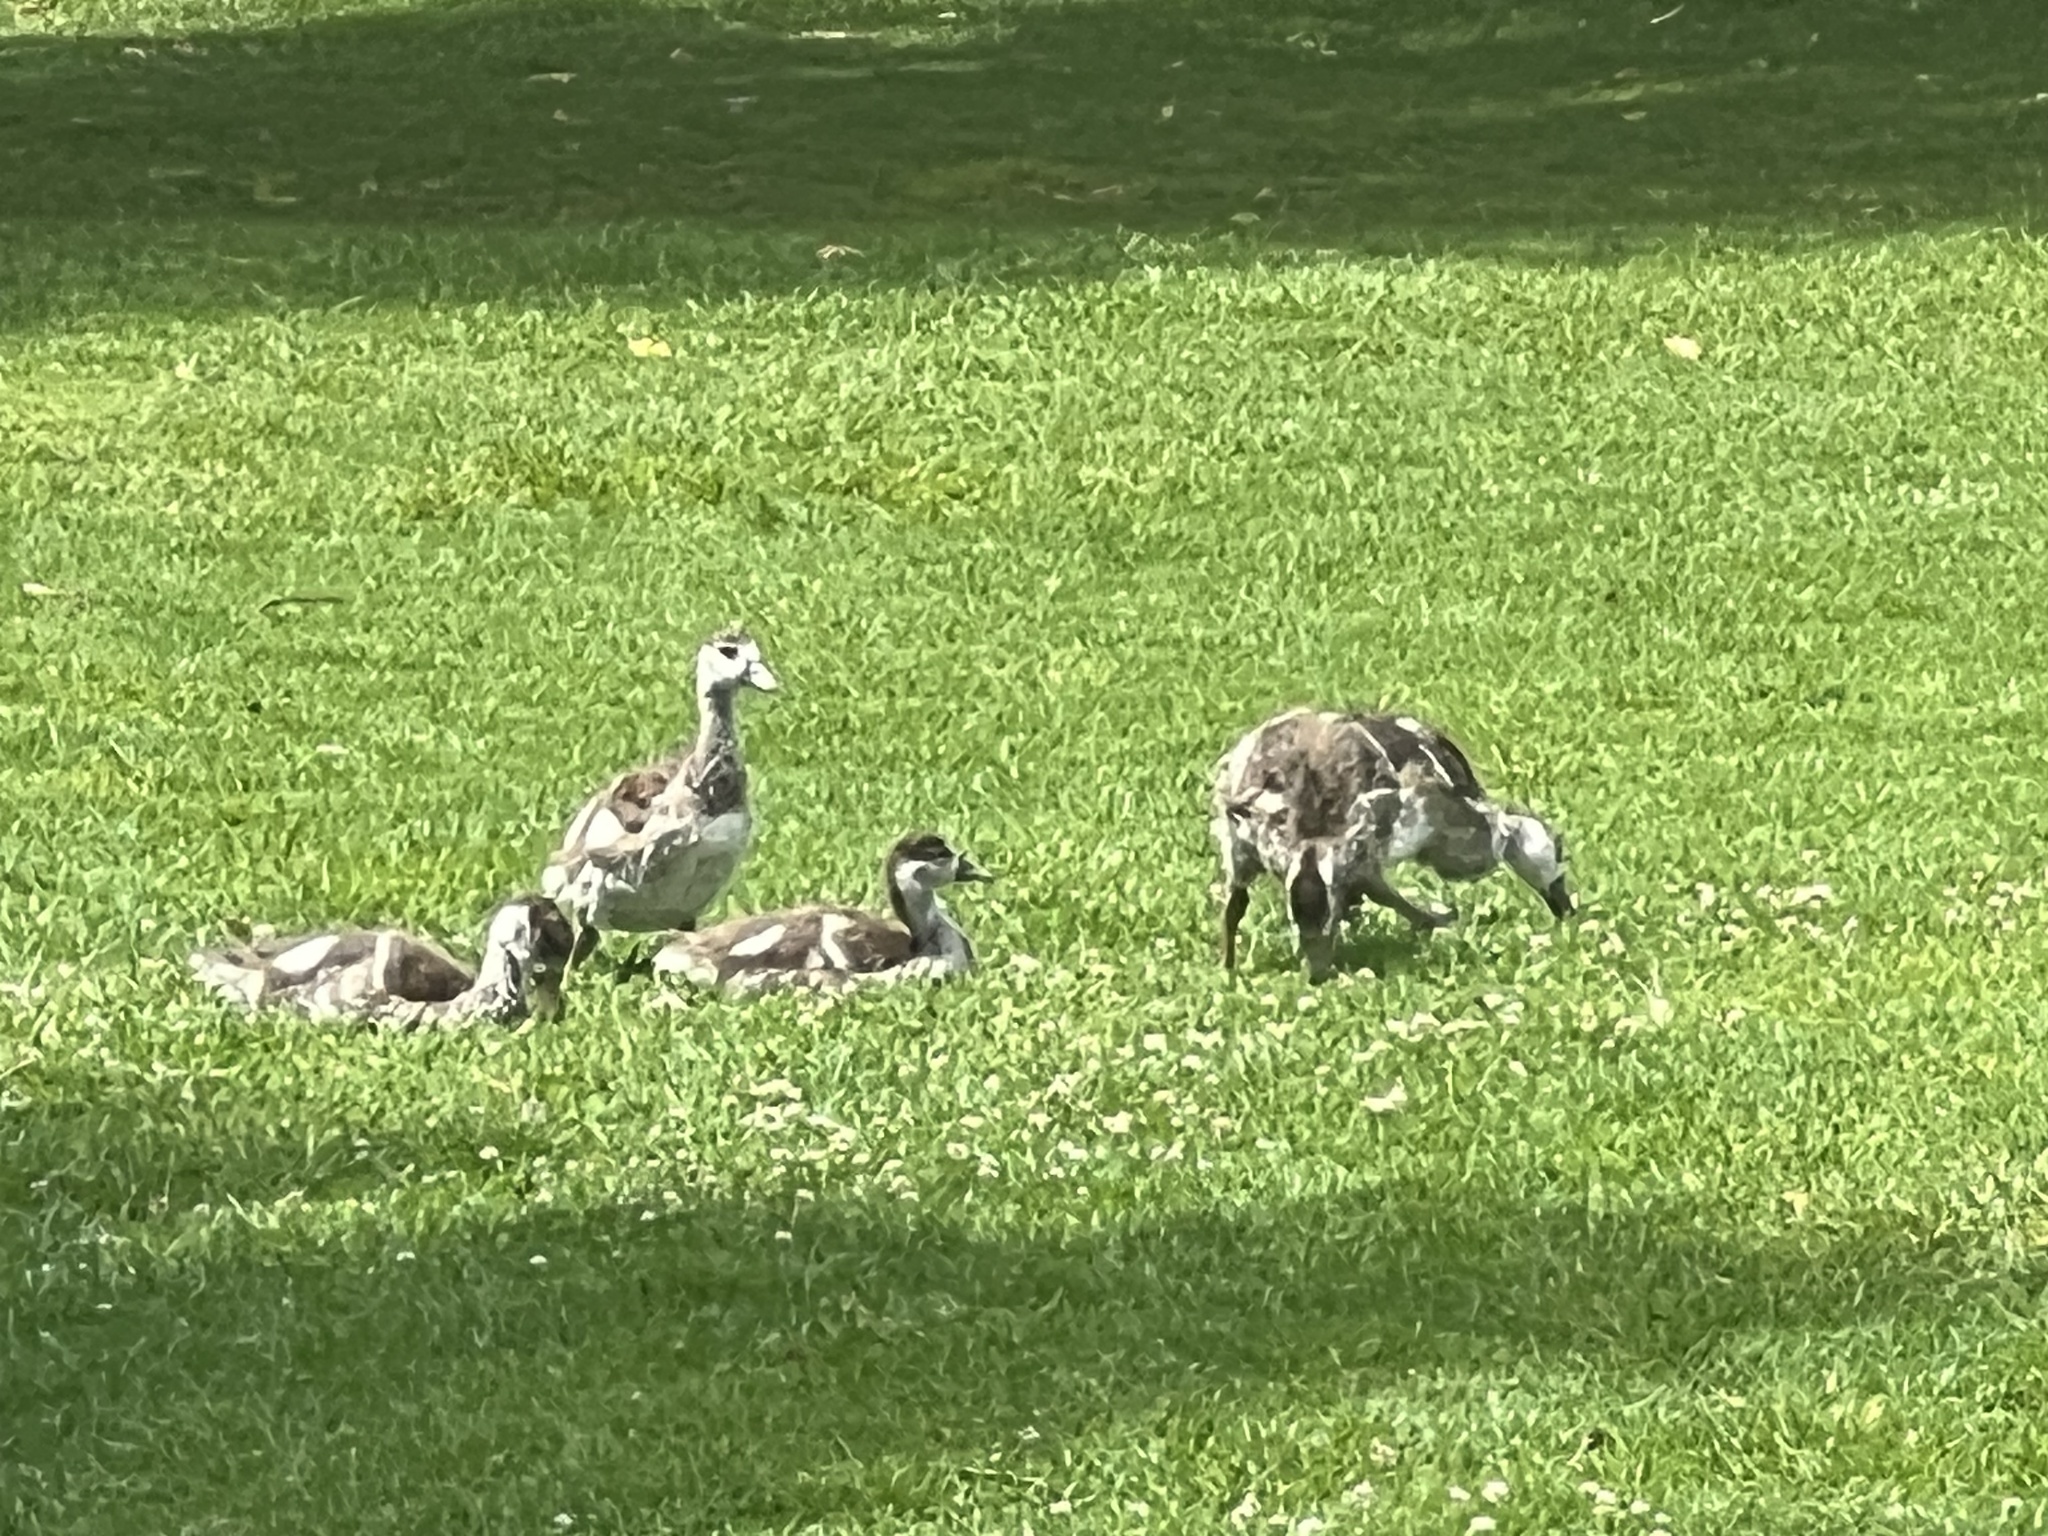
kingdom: Animalia
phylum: Chordata
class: Aves
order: Anseriformes
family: Anatidae
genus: Alopochen
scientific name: Alopochen aegyptiaca
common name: Egyptian goose
